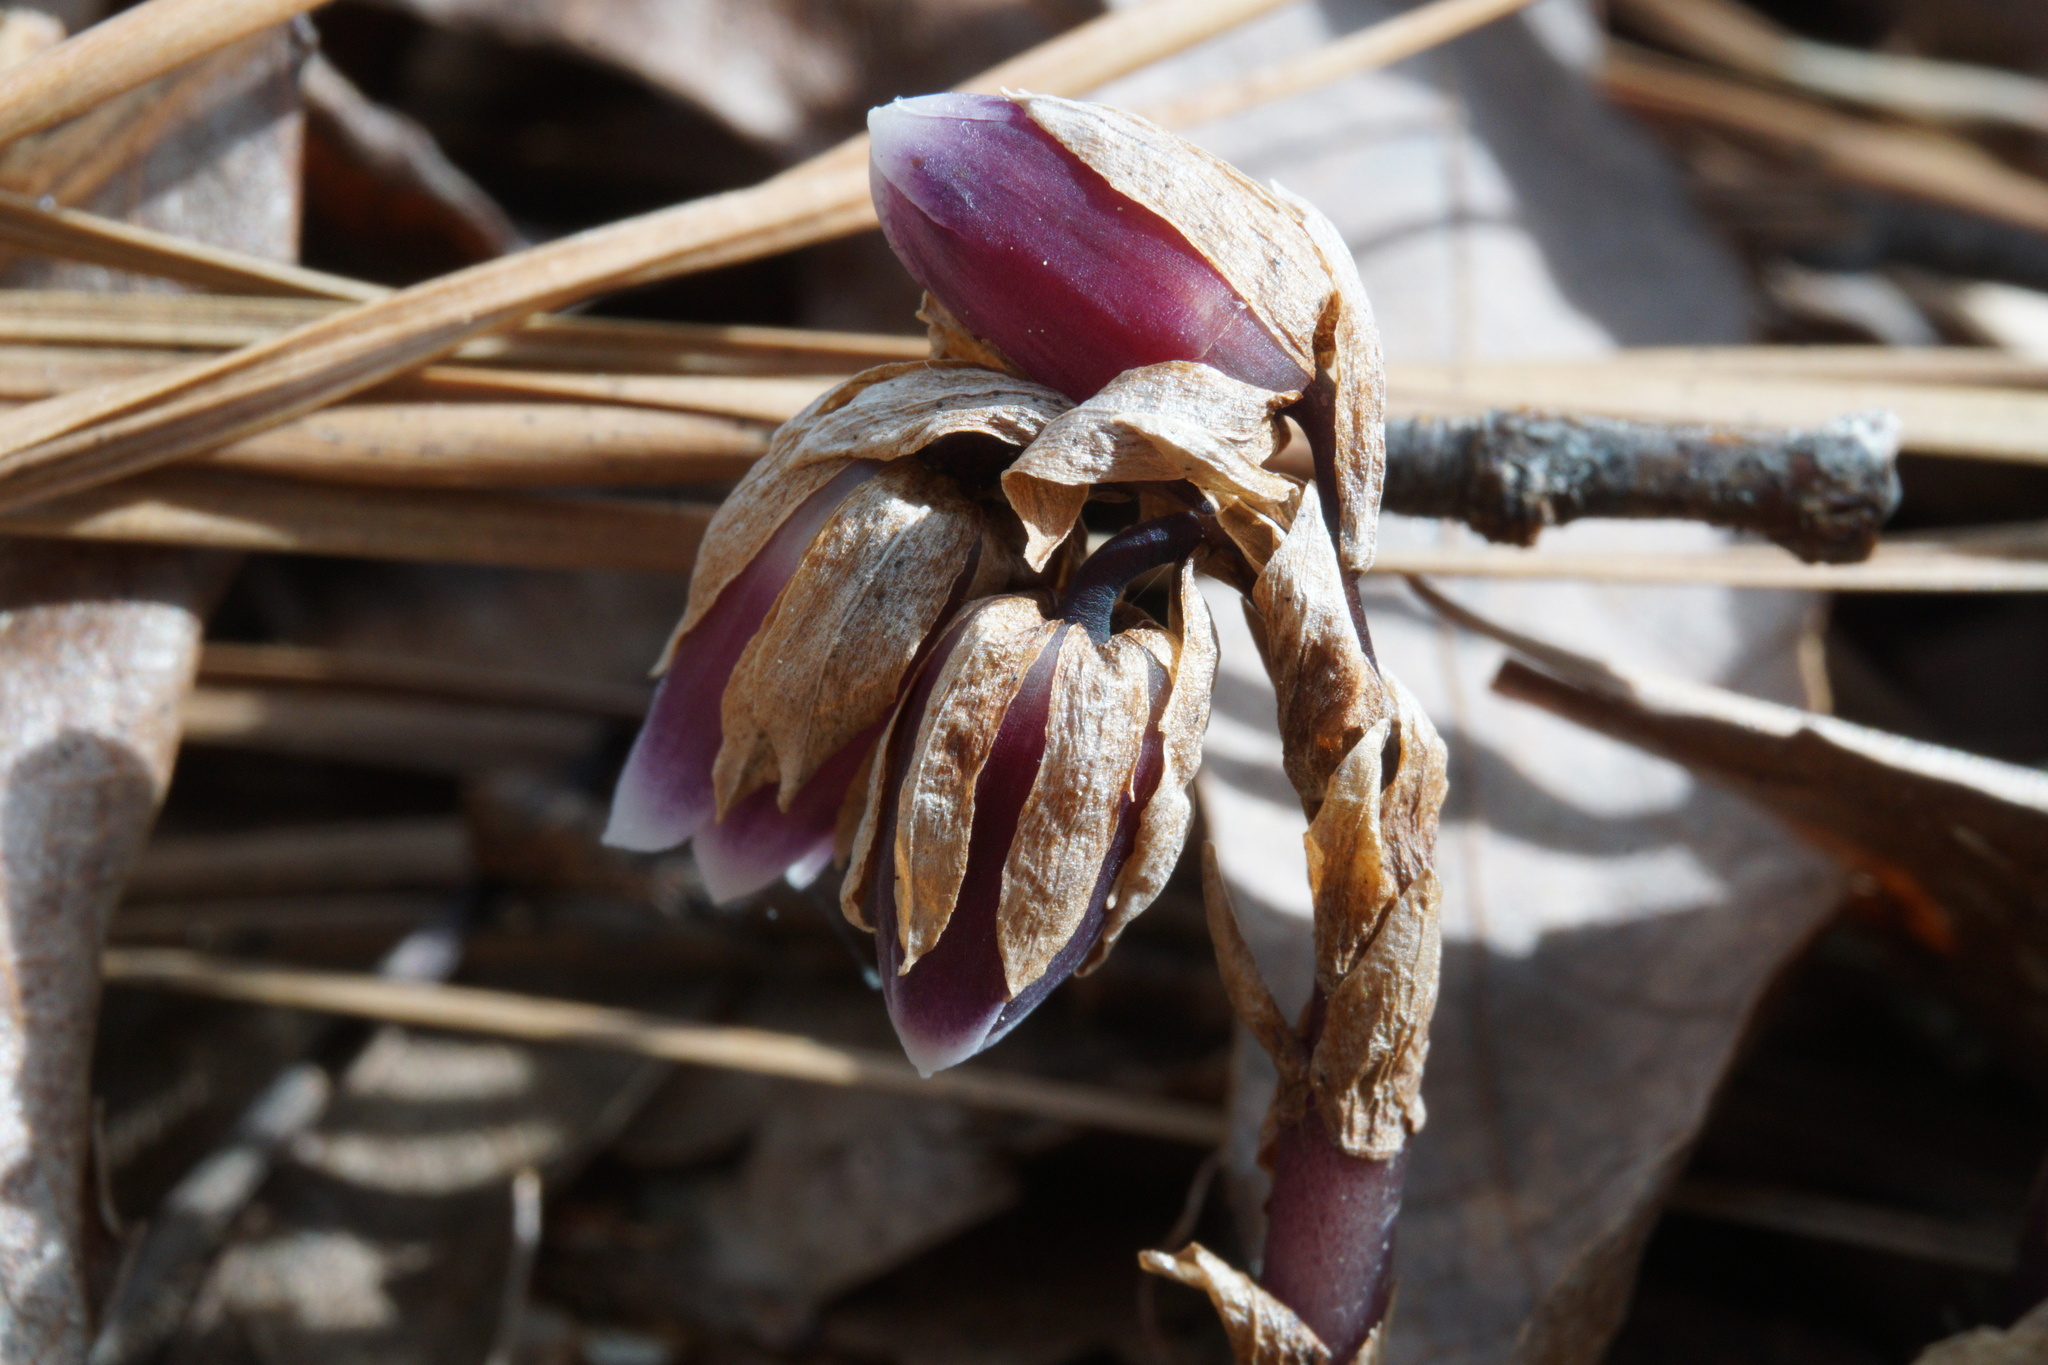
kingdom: Plantae
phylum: Tracheophyta
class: Magnoliopsida
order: Ericales
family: Ericaceae
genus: Monotropsis
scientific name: Monotropsis odorata
